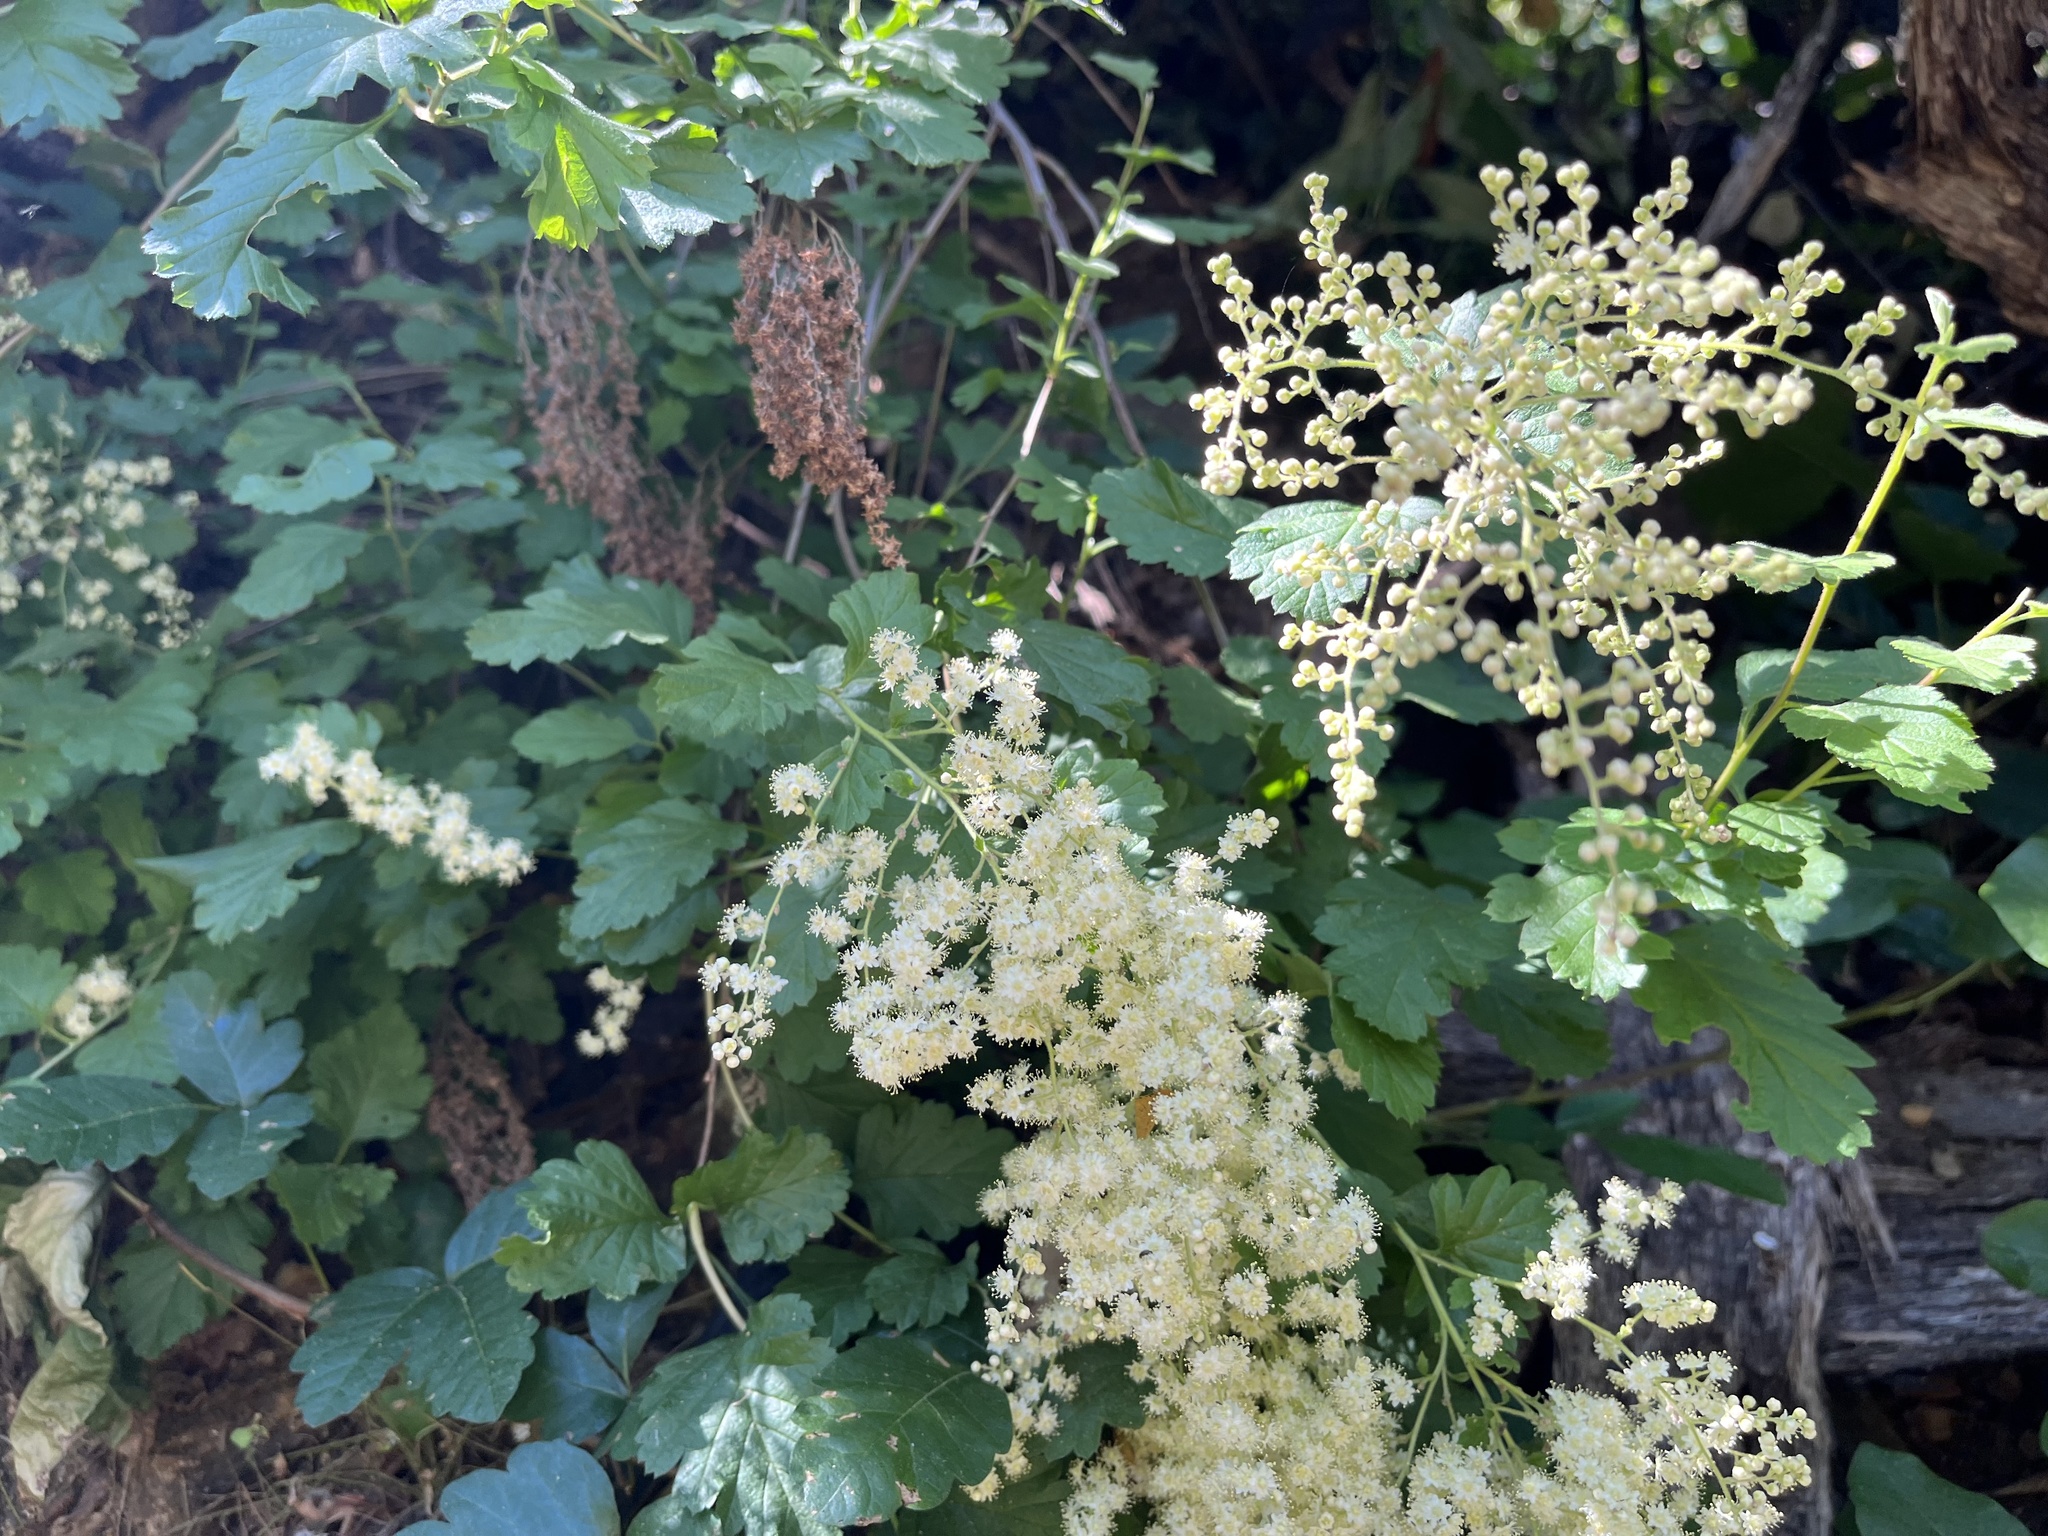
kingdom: Plantae
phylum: Tracheophyta
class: Magnoliopsida
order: Rosales
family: Rosaceae
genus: Holodiscus
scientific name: Holodiscus discolor
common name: Oceanspray
